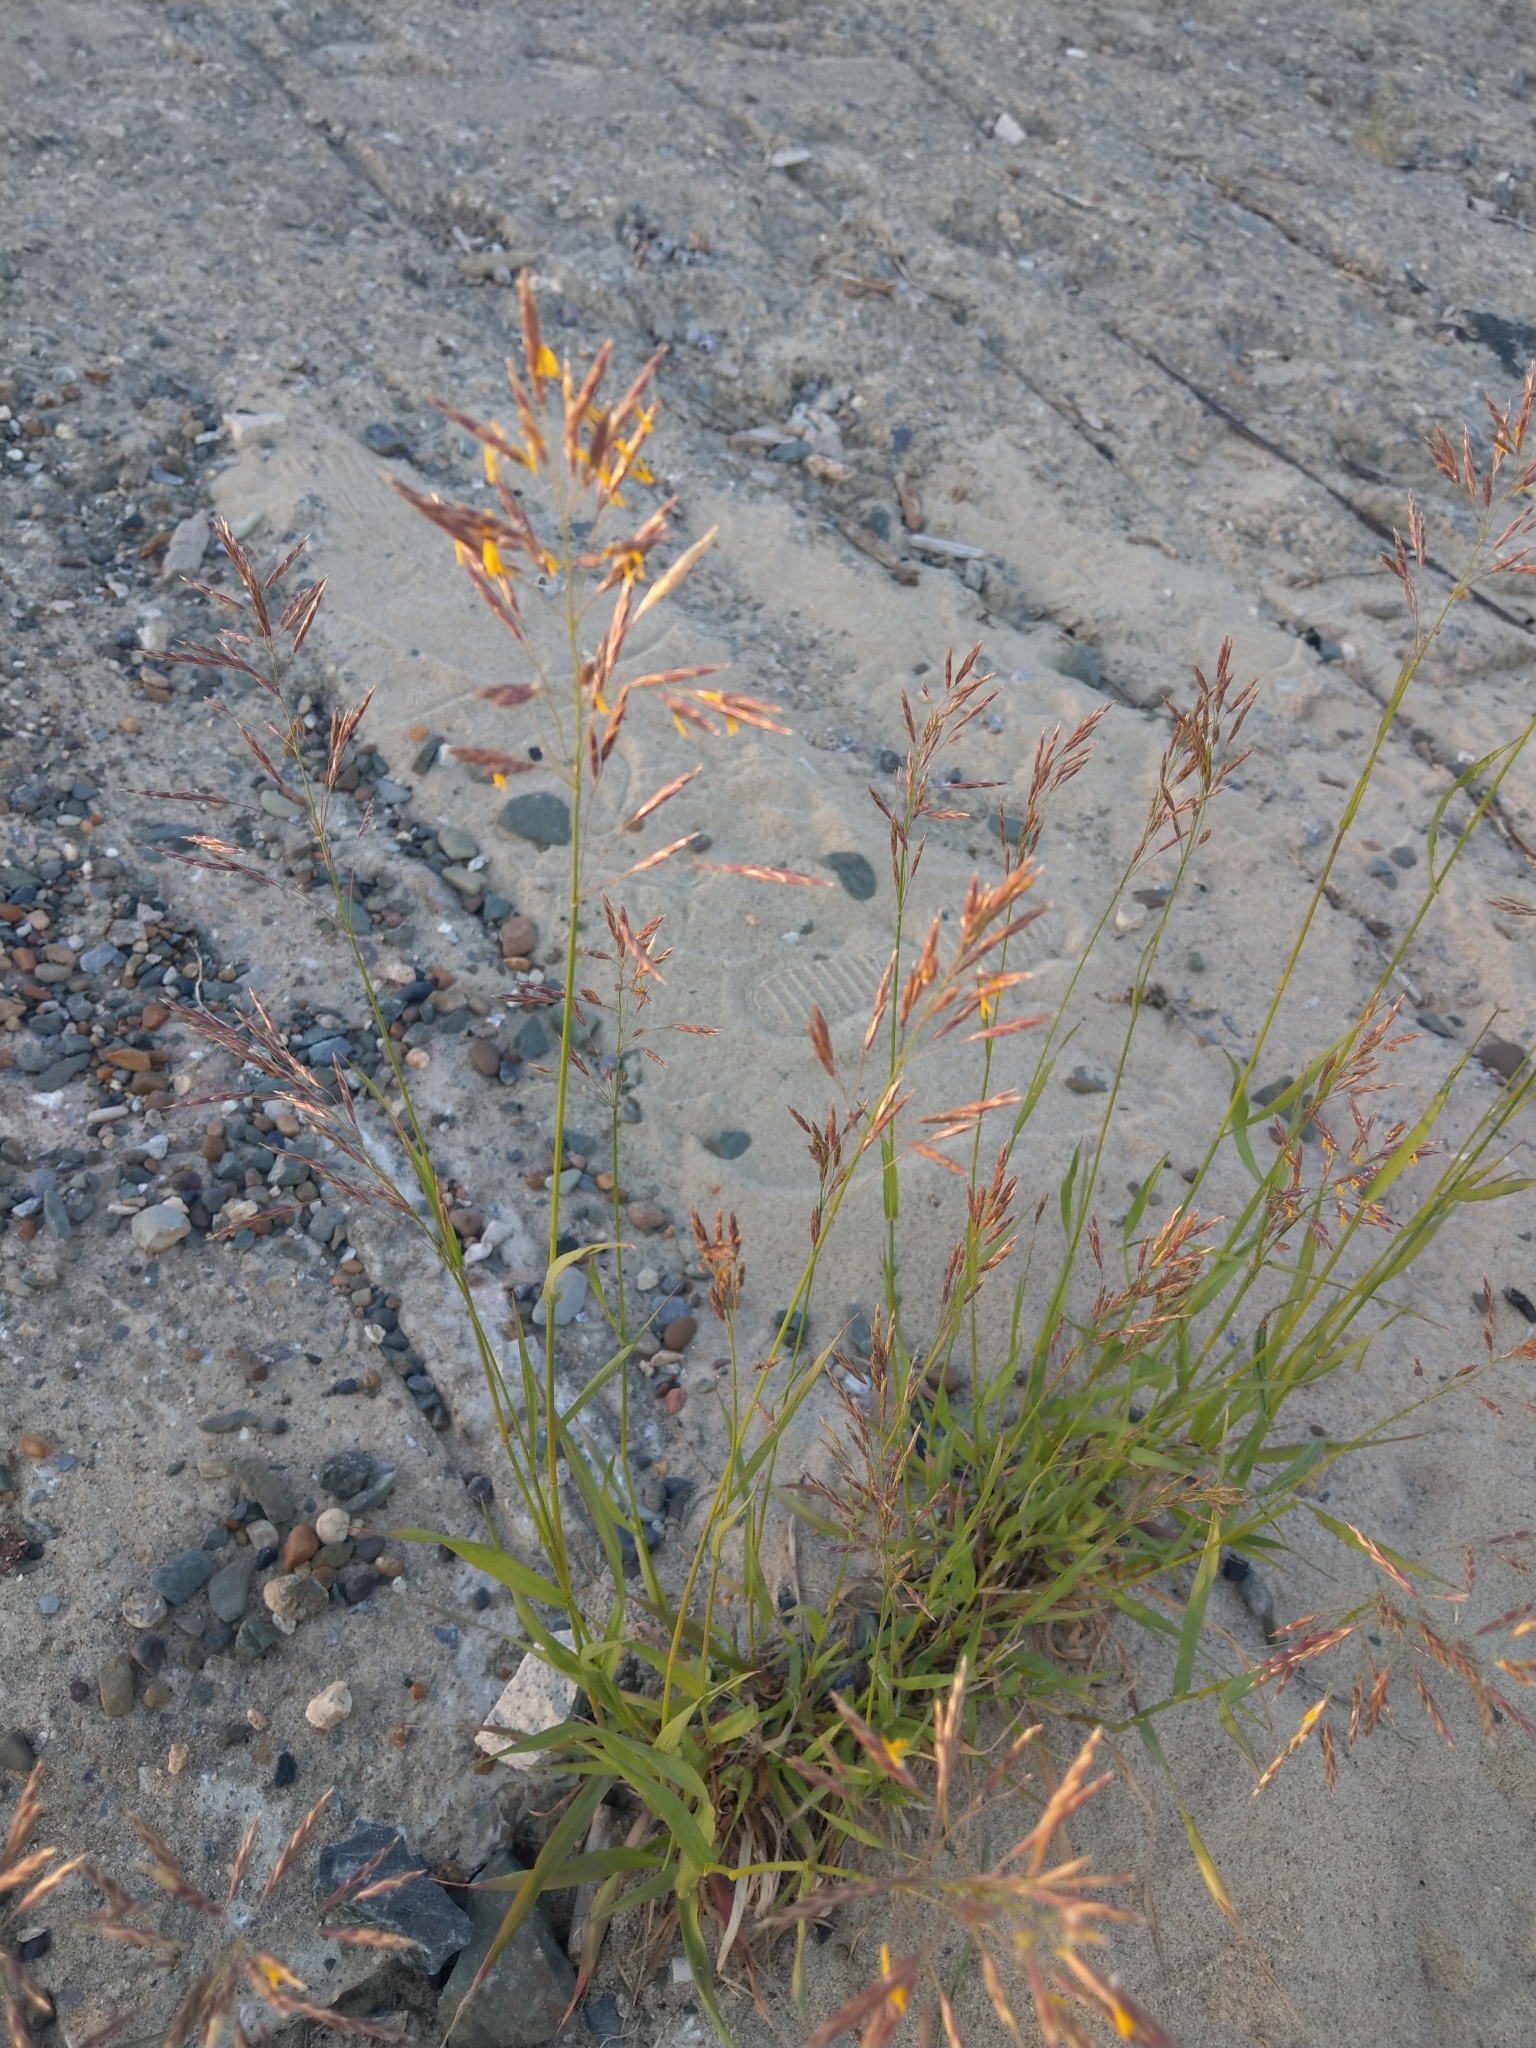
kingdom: Plantae
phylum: Tracheophyta
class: Liliopsida
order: Poales
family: Poaceae
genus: Bromus
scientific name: Bromus inermis
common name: Smooth brome
